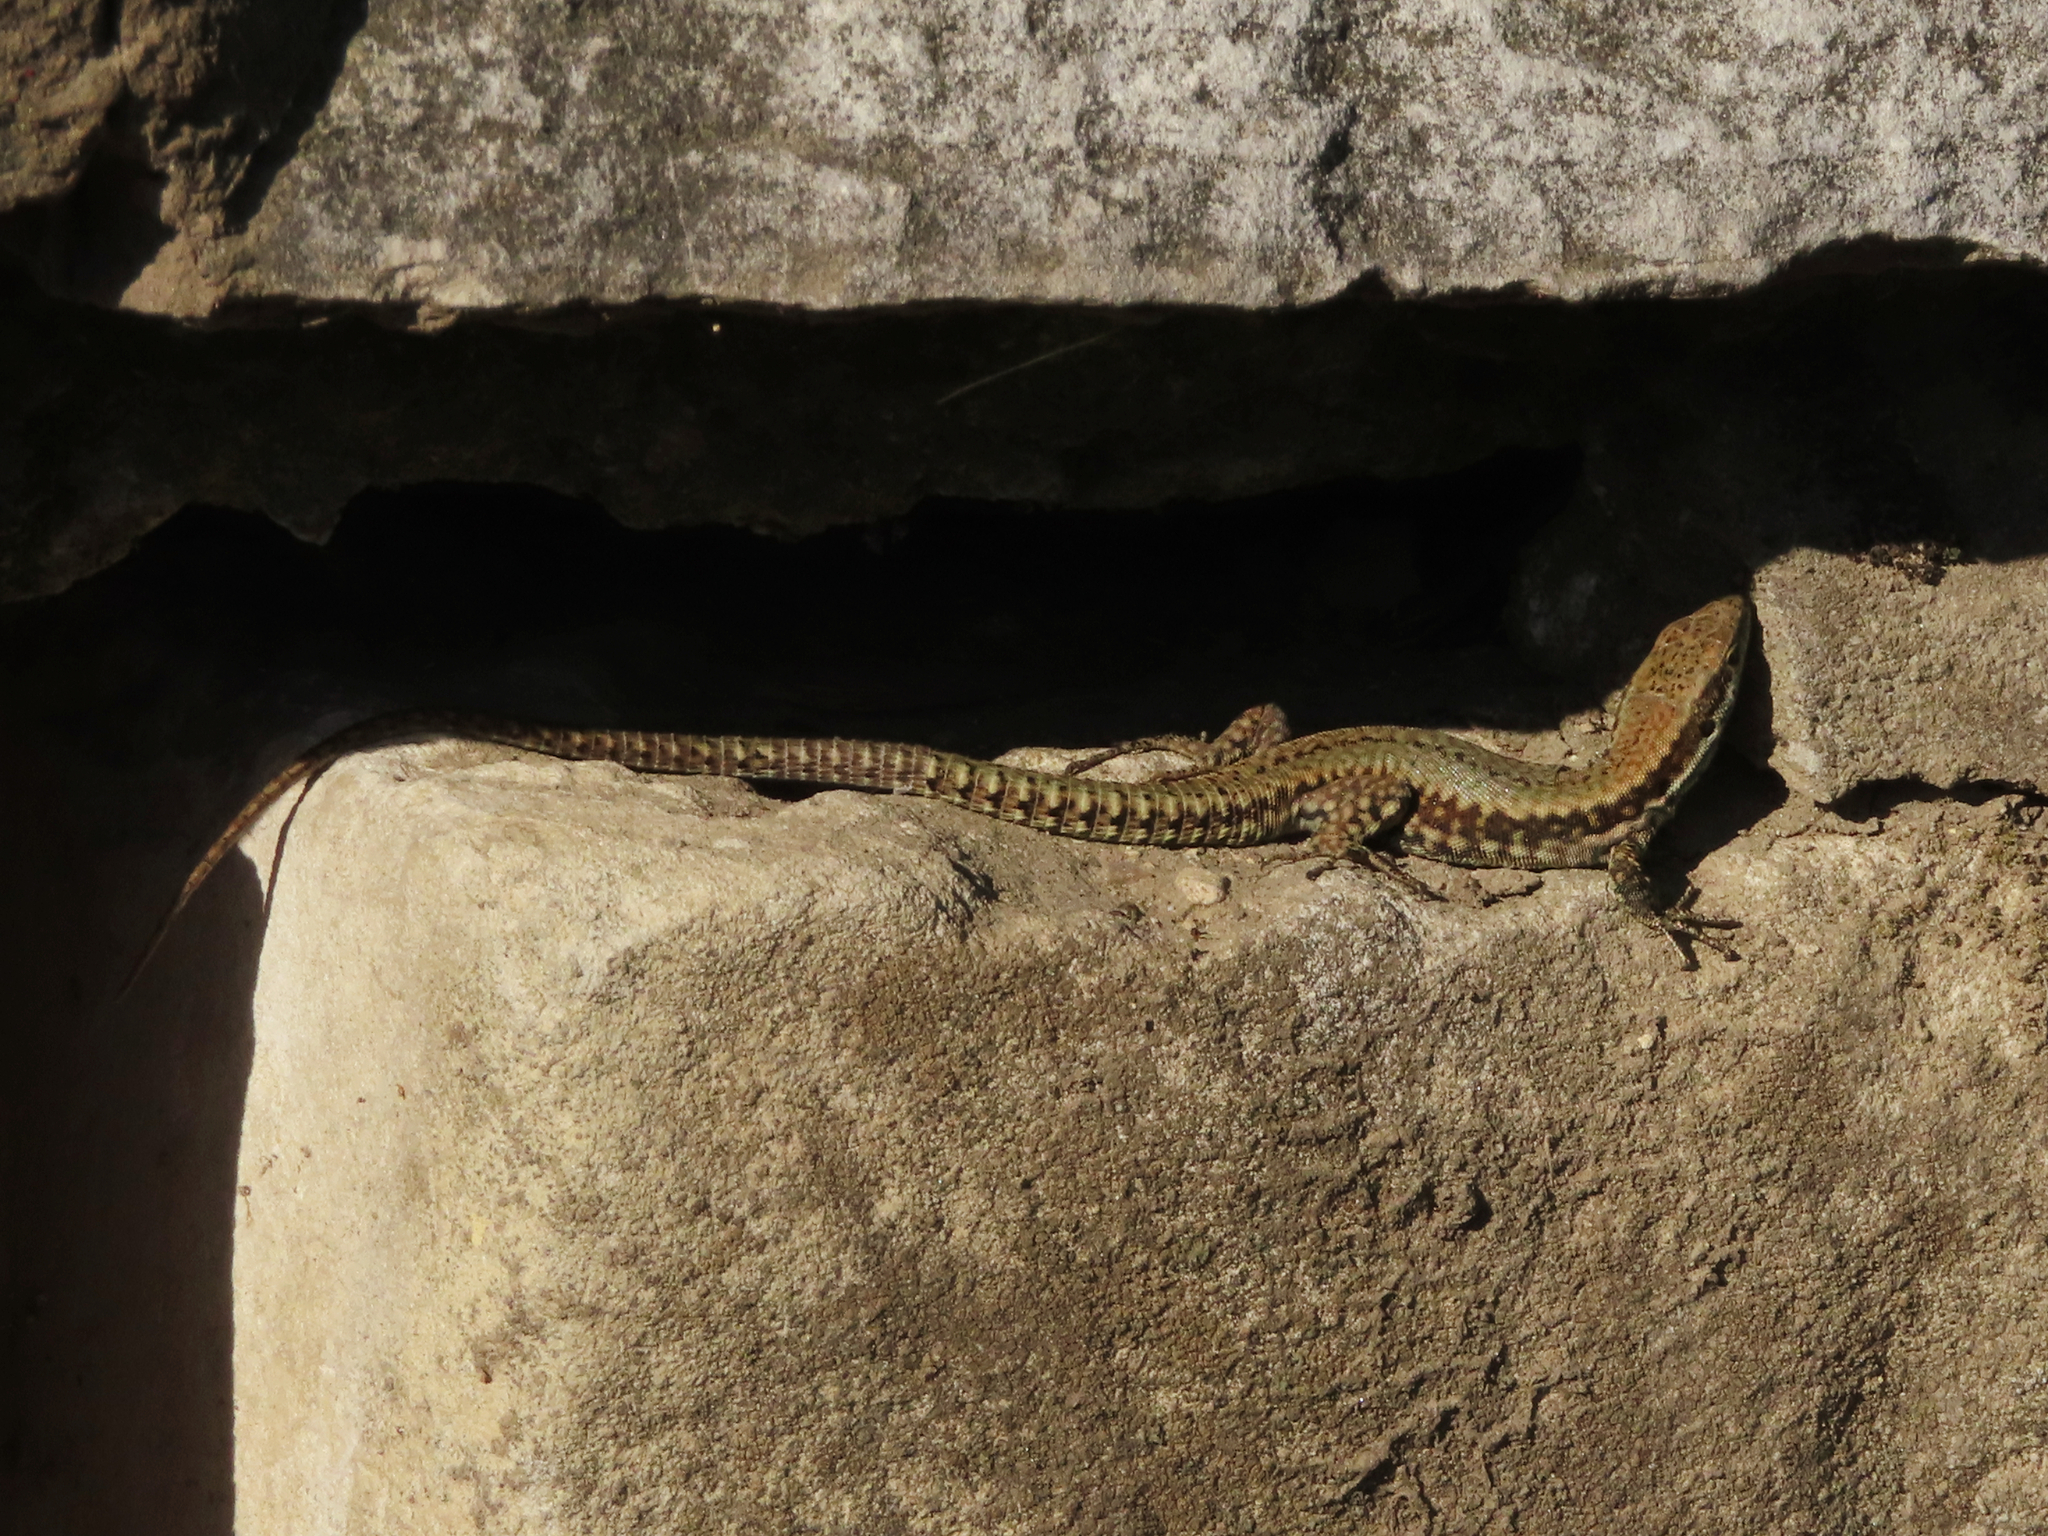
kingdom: Animalia
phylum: Chordata
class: Squamata
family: Lacertidae
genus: Podarcis
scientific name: Podarcis muralis
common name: Common wall lizard
